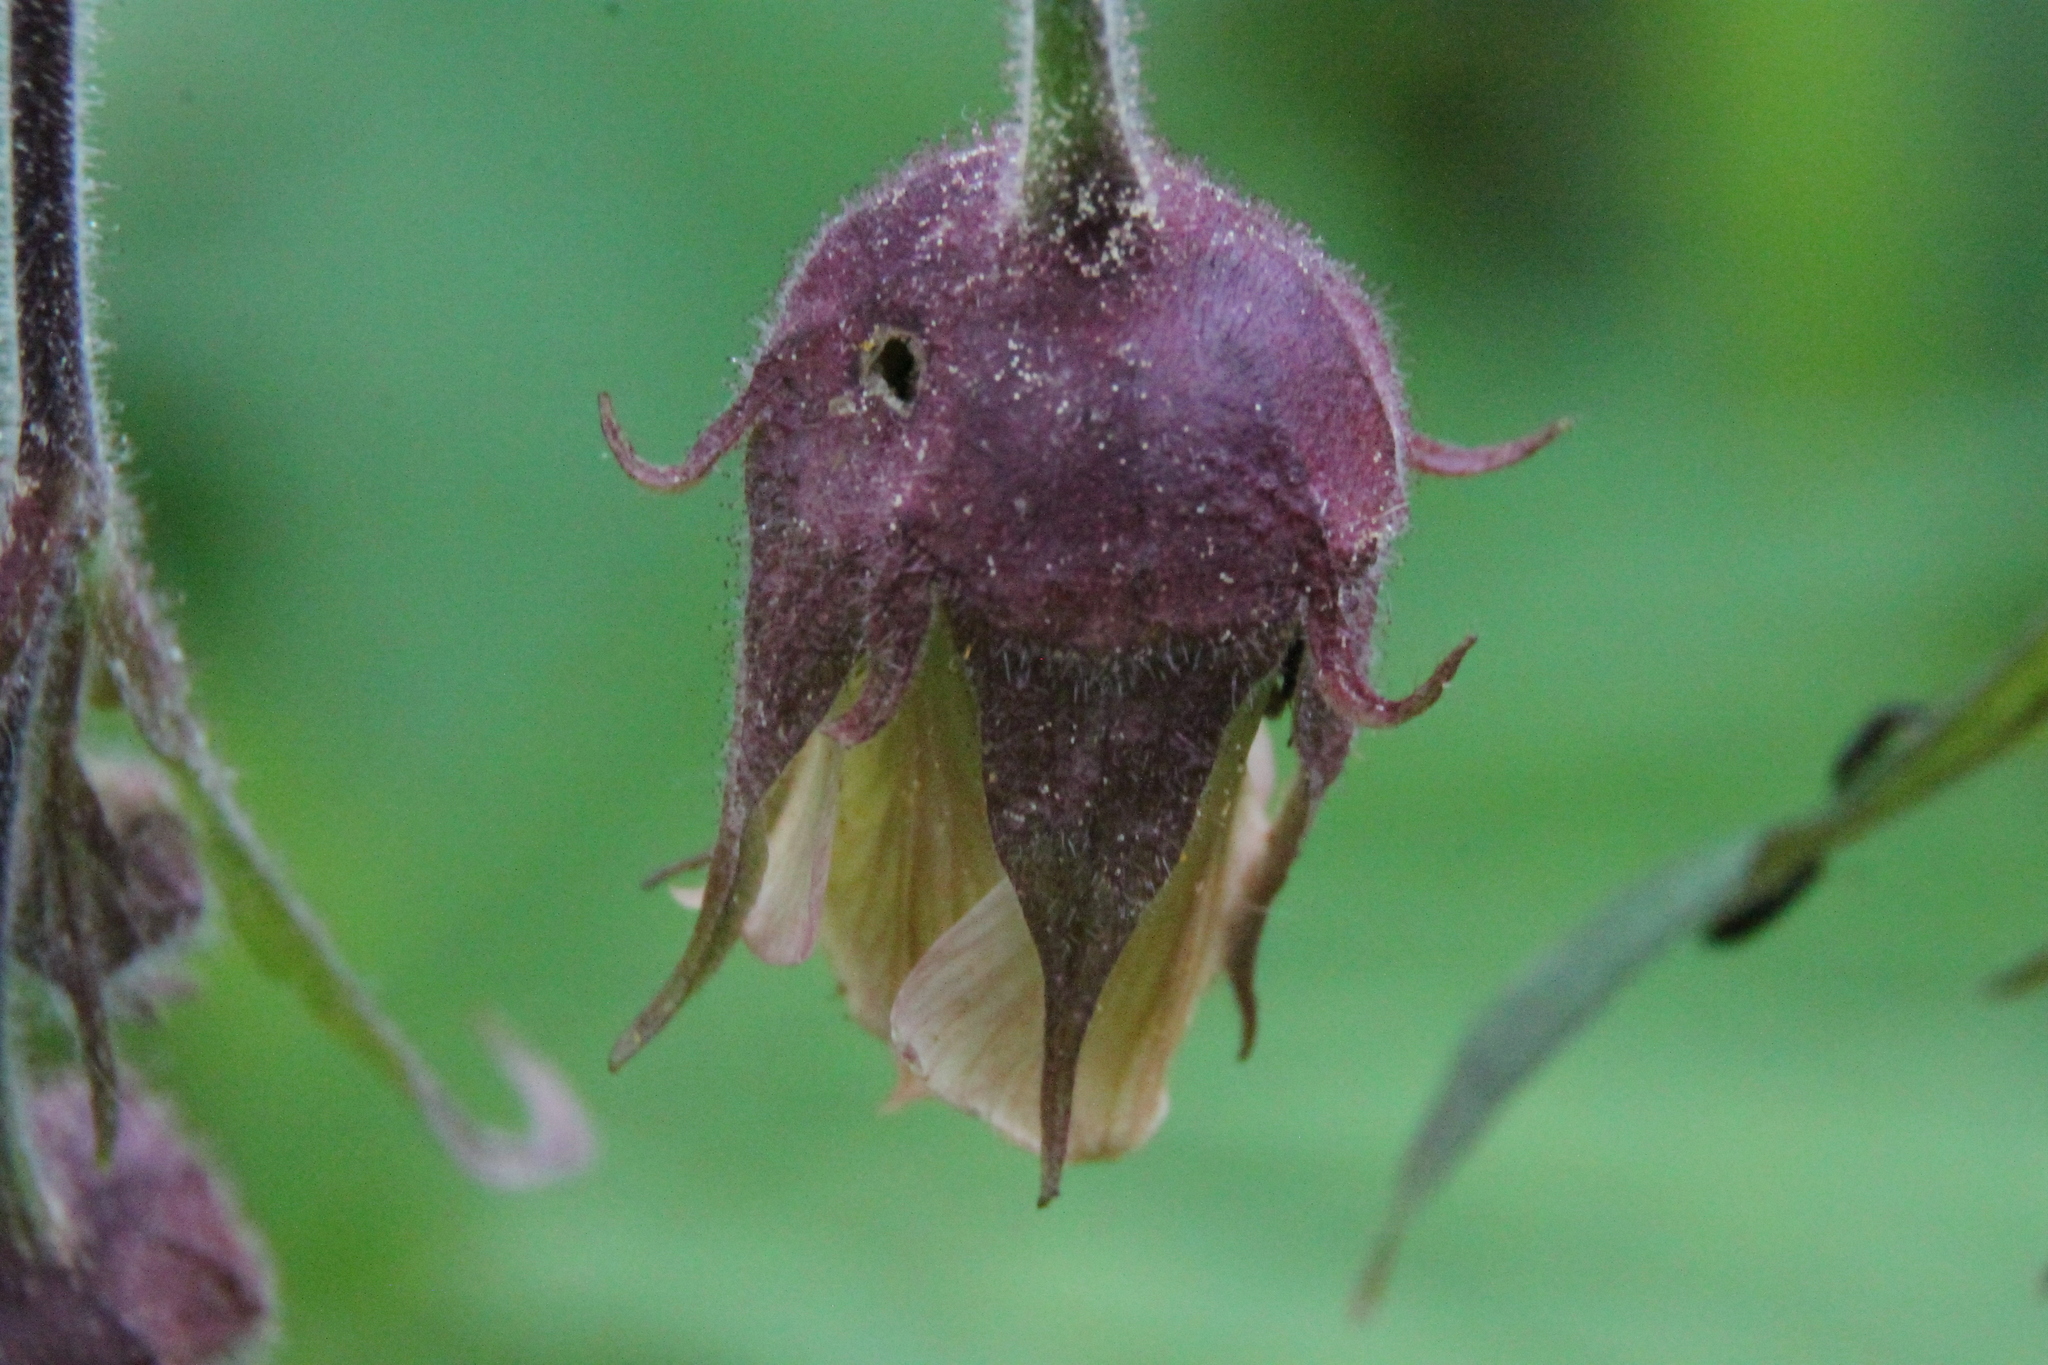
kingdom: Plantae
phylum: Tracheophyta
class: Magnoliopsida
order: Rosales
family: Rosaceae
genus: Geum
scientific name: Geum rivale
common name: Water avens
